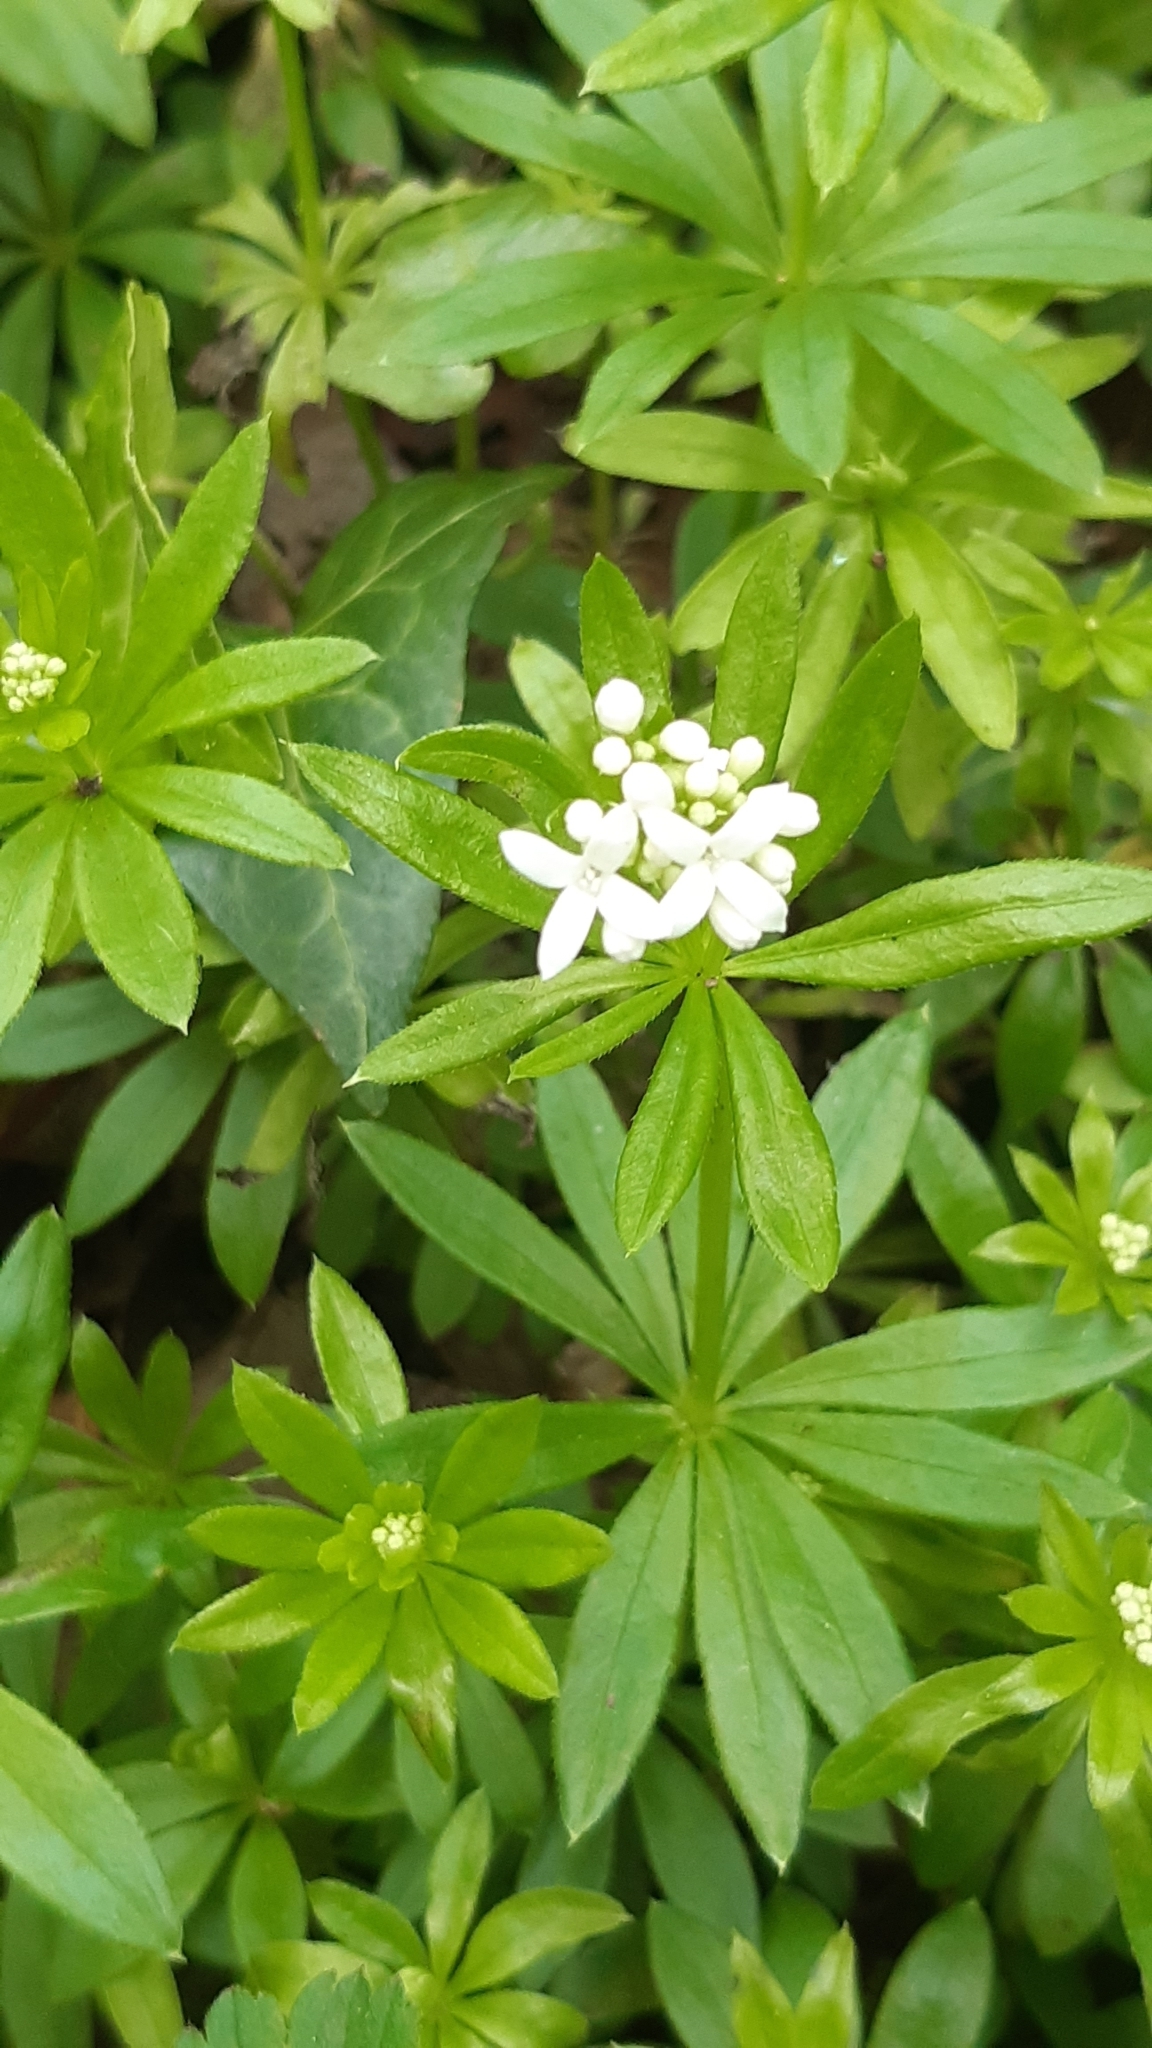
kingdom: Plantae
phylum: Tracheophyta
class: Magnoliopsida
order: Gentianales
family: Rubiaceae
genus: Galium
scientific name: Galium odoratum
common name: Sweet woodruff
